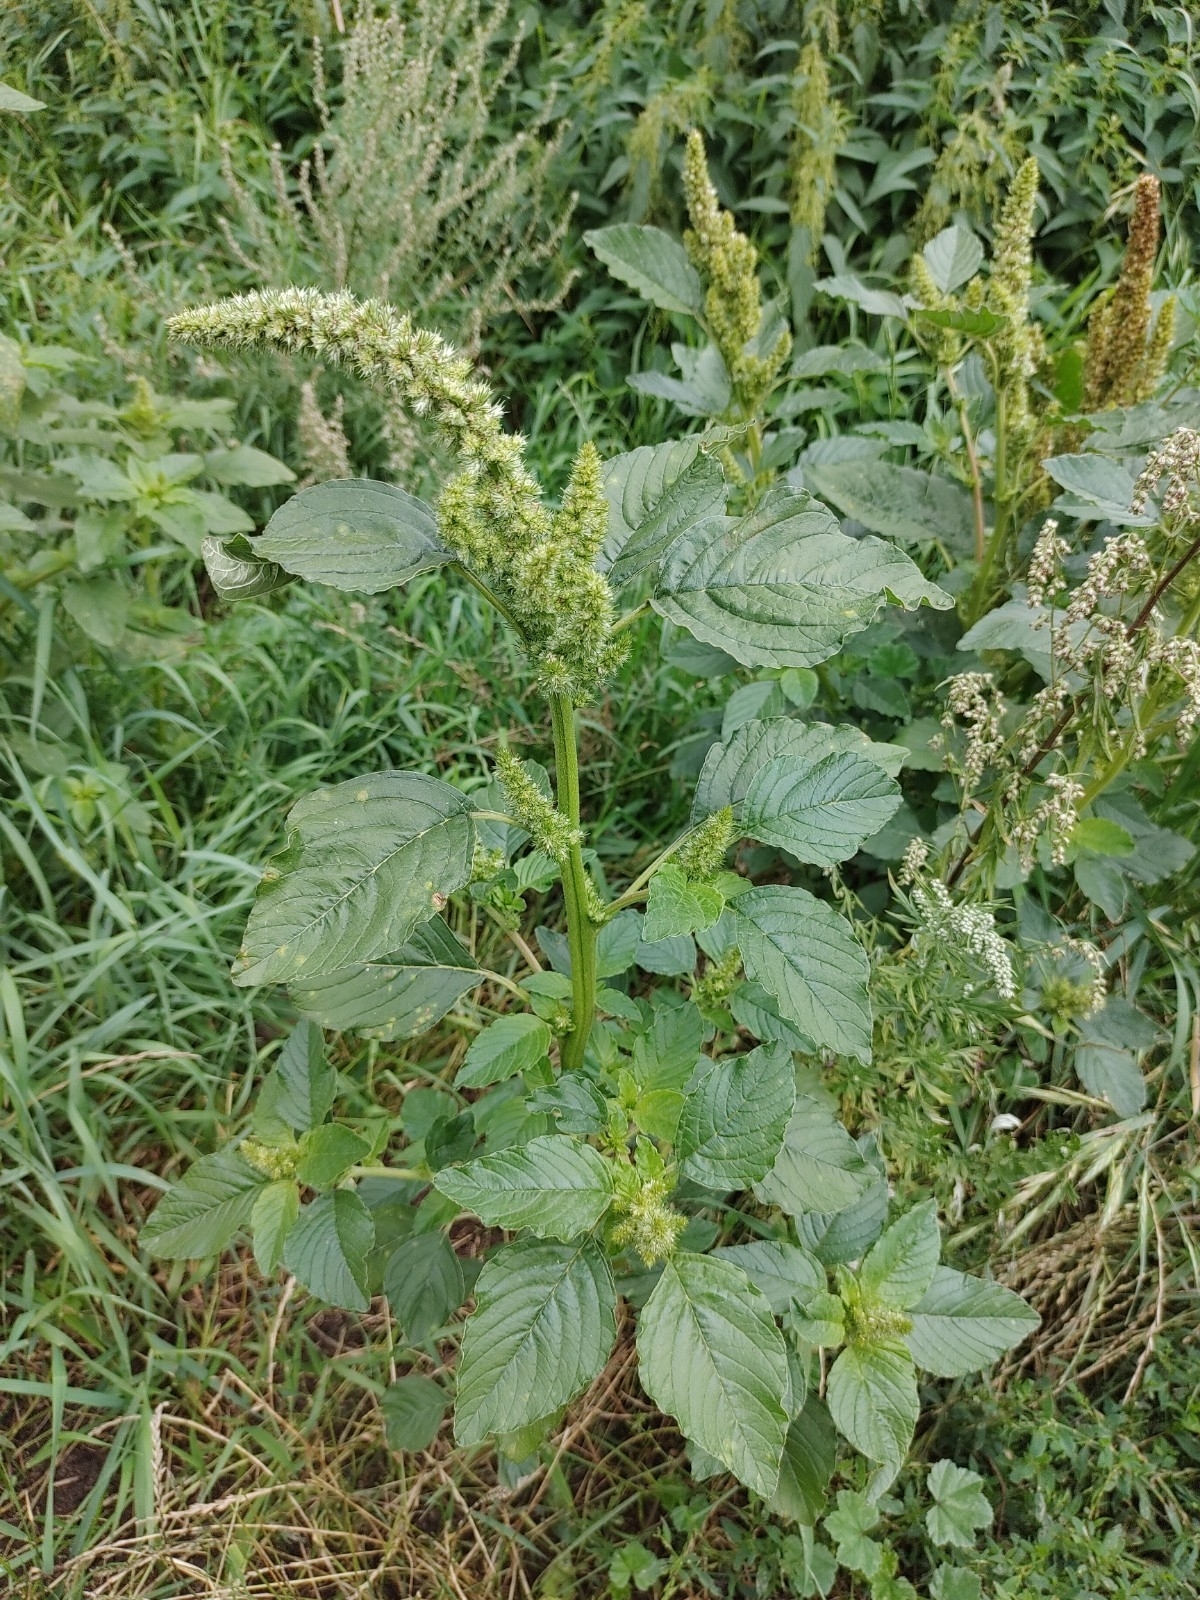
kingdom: Plantae
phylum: Tracheophyta
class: Magnoliopsida
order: Caryophyllales
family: Amaranthaceae
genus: Amaranthus
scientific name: Amaranthus retroflexus
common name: Redroot amaranth
